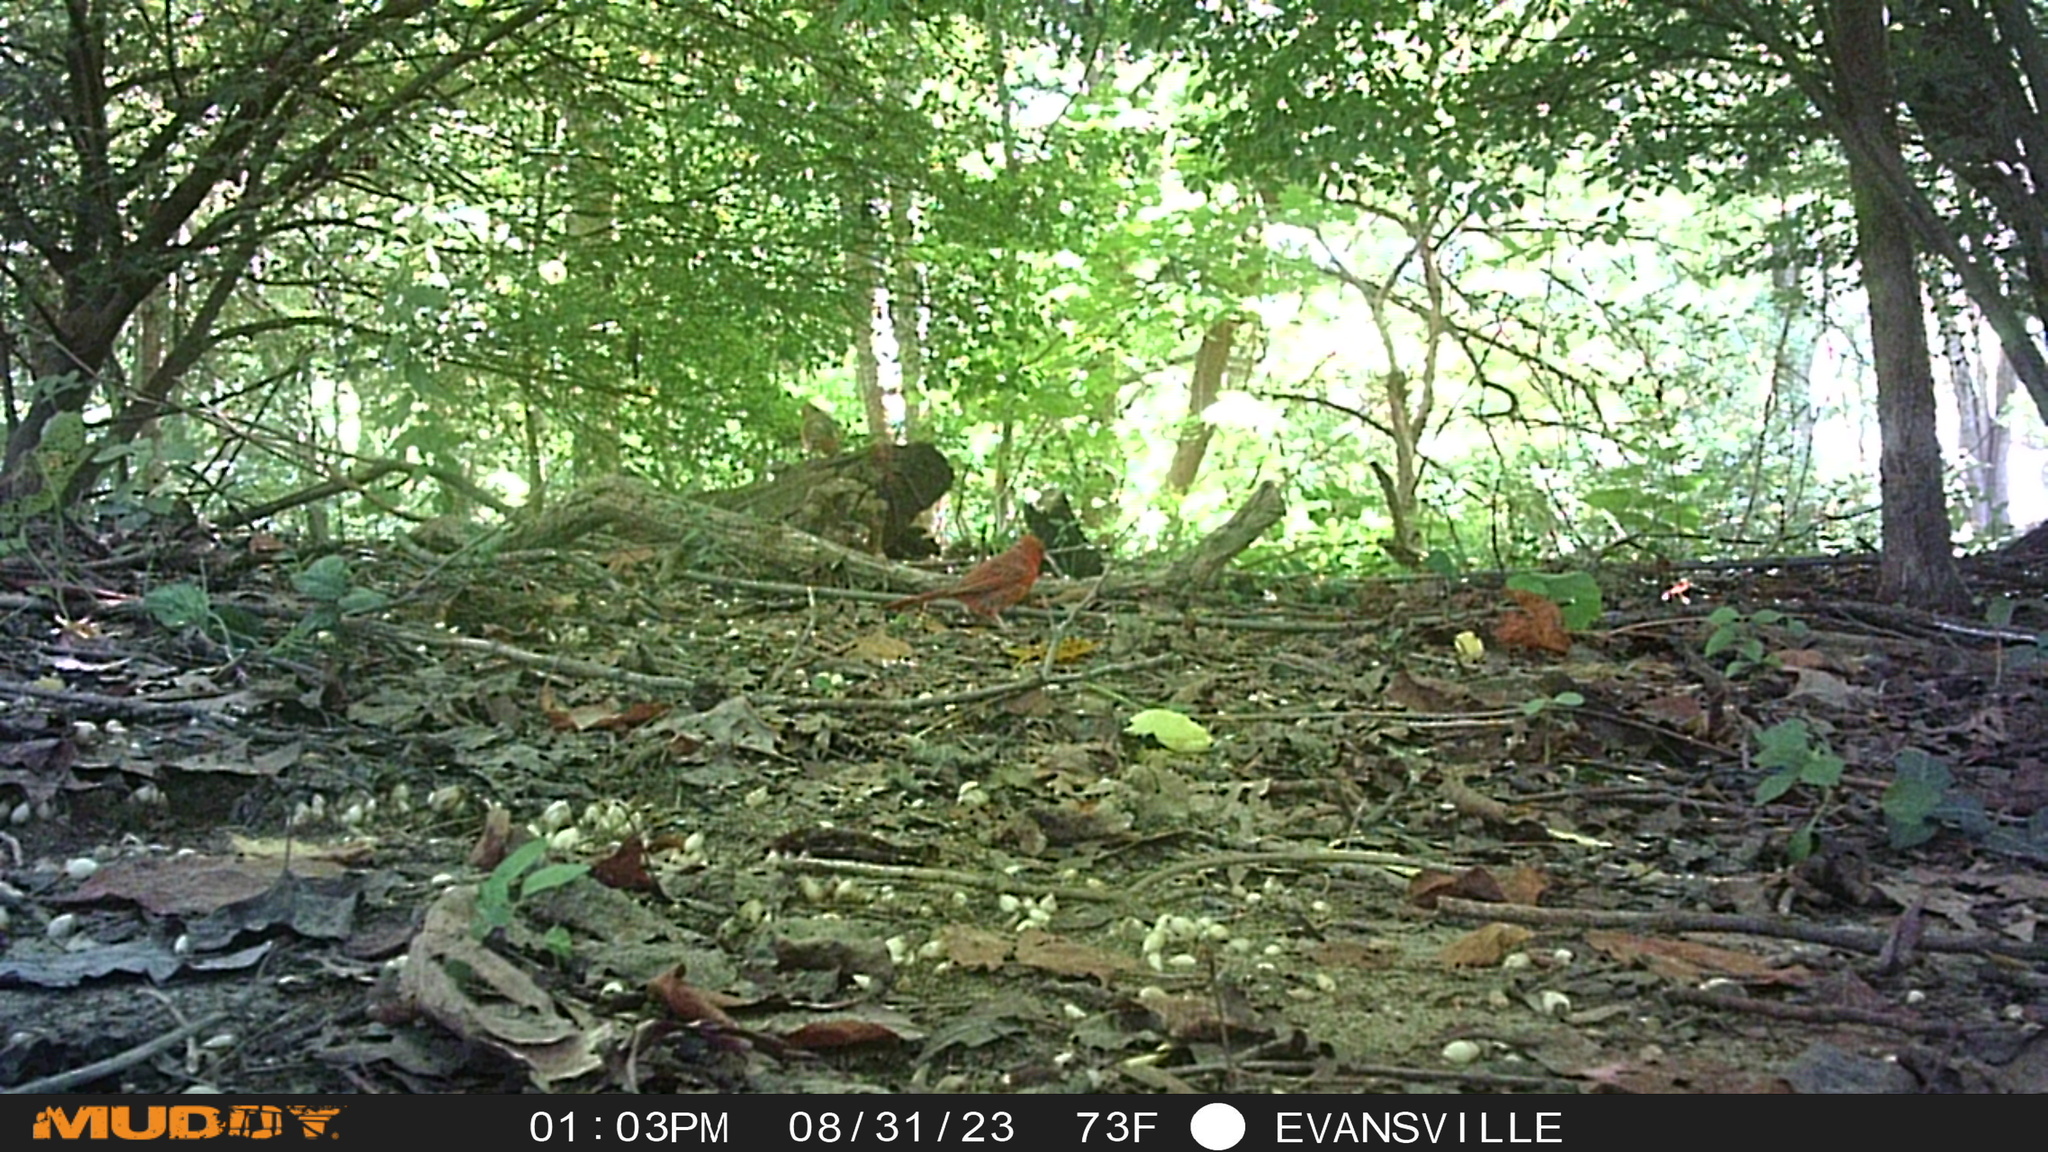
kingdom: Animalia
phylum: Chordata
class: Aves
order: Passeriformes
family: Cardinalidae
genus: Cardinalis
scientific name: Cardinalis cardinalis
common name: Northern cardinal
